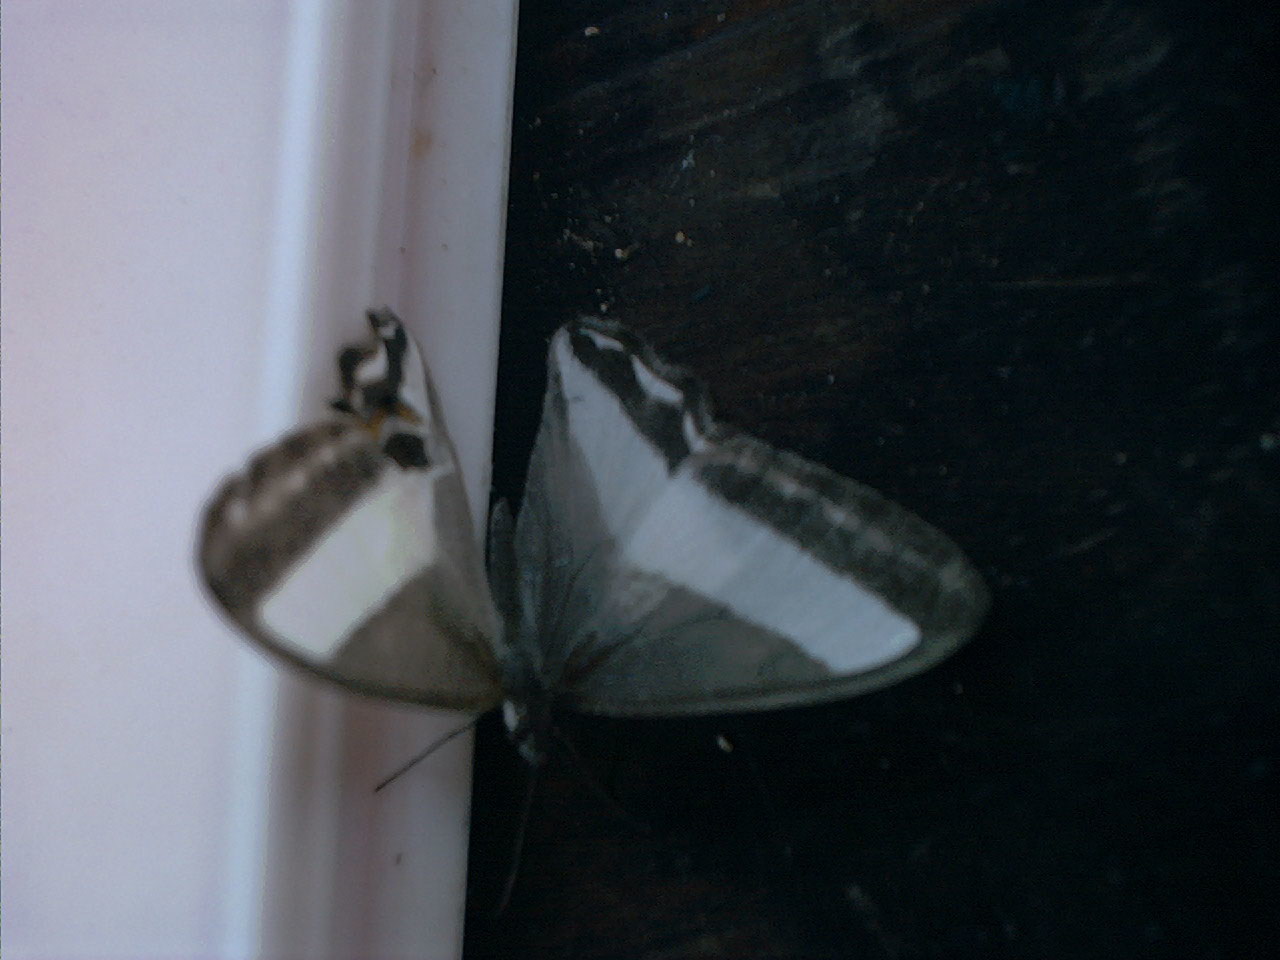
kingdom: Animalia
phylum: Arthropoda
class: Insecta
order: Lepidoptera
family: Nymphalidae
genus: Oressinoma
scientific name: Oressinoma typhla
